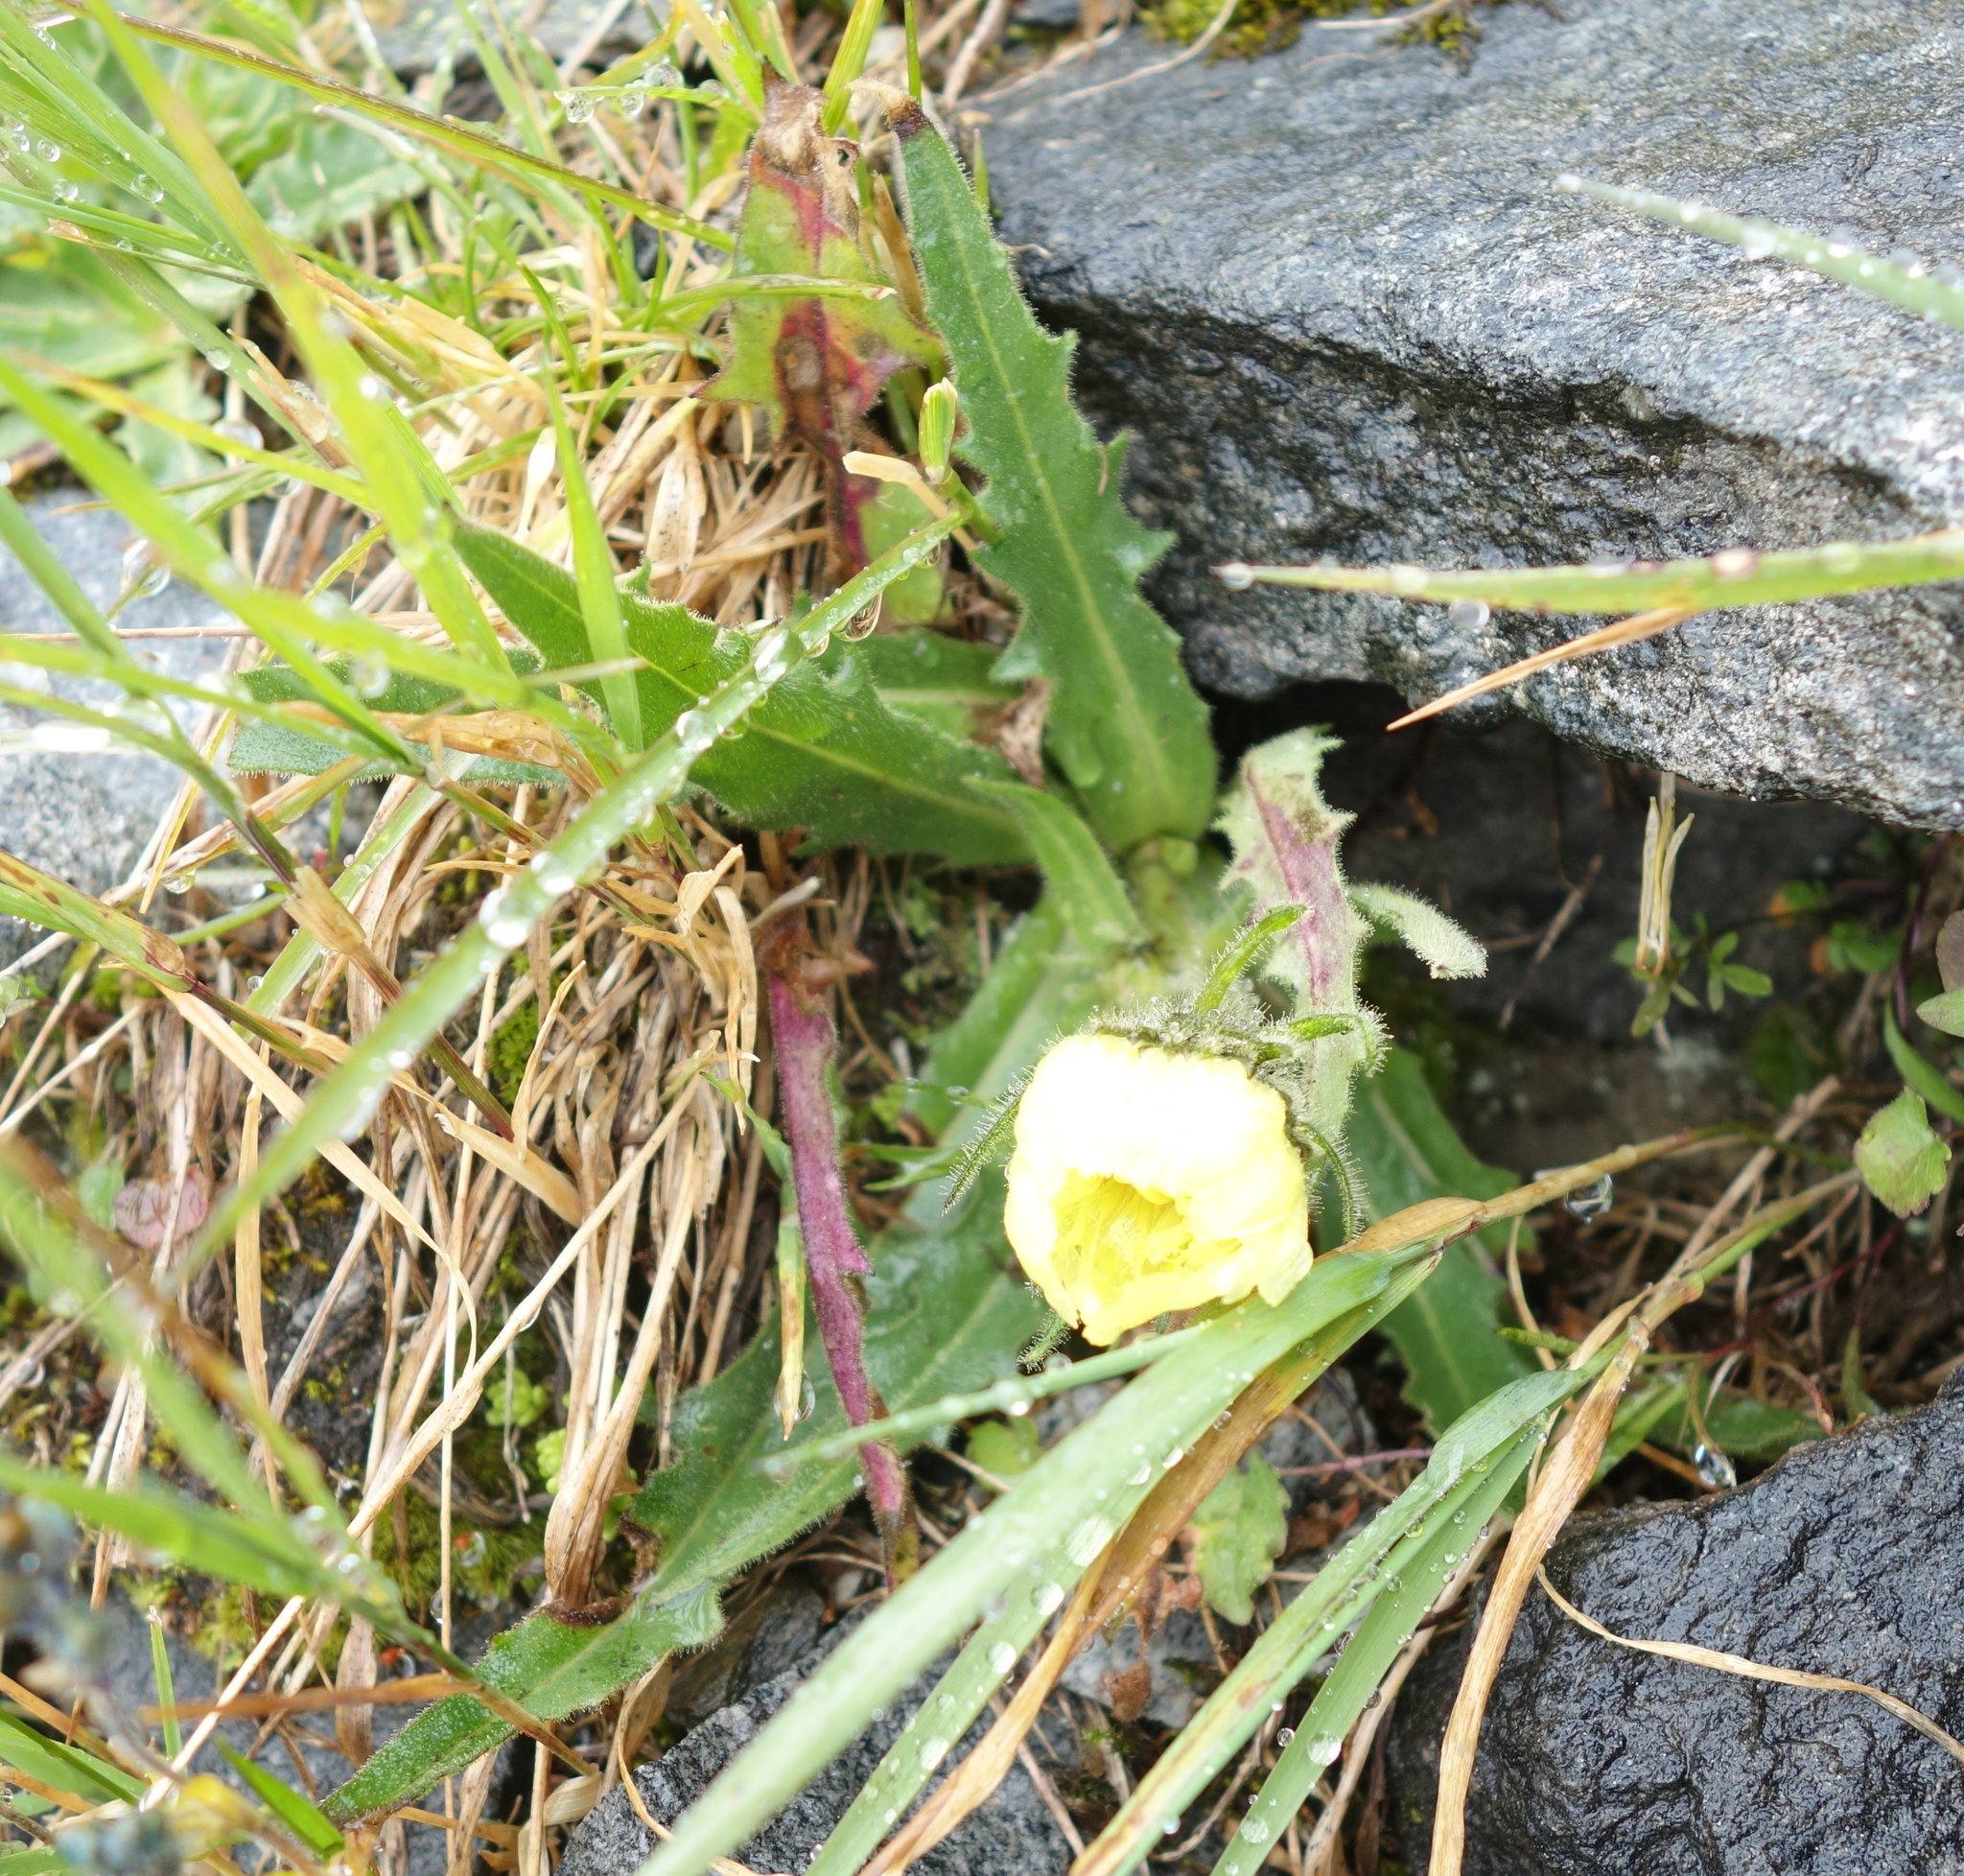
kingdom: Plantae
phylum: Tracheophyta
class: Magnoliopsida
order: Asterales
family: Asteraceae
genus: Schlagintweitia
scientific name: Schlagintweitia intybacea
